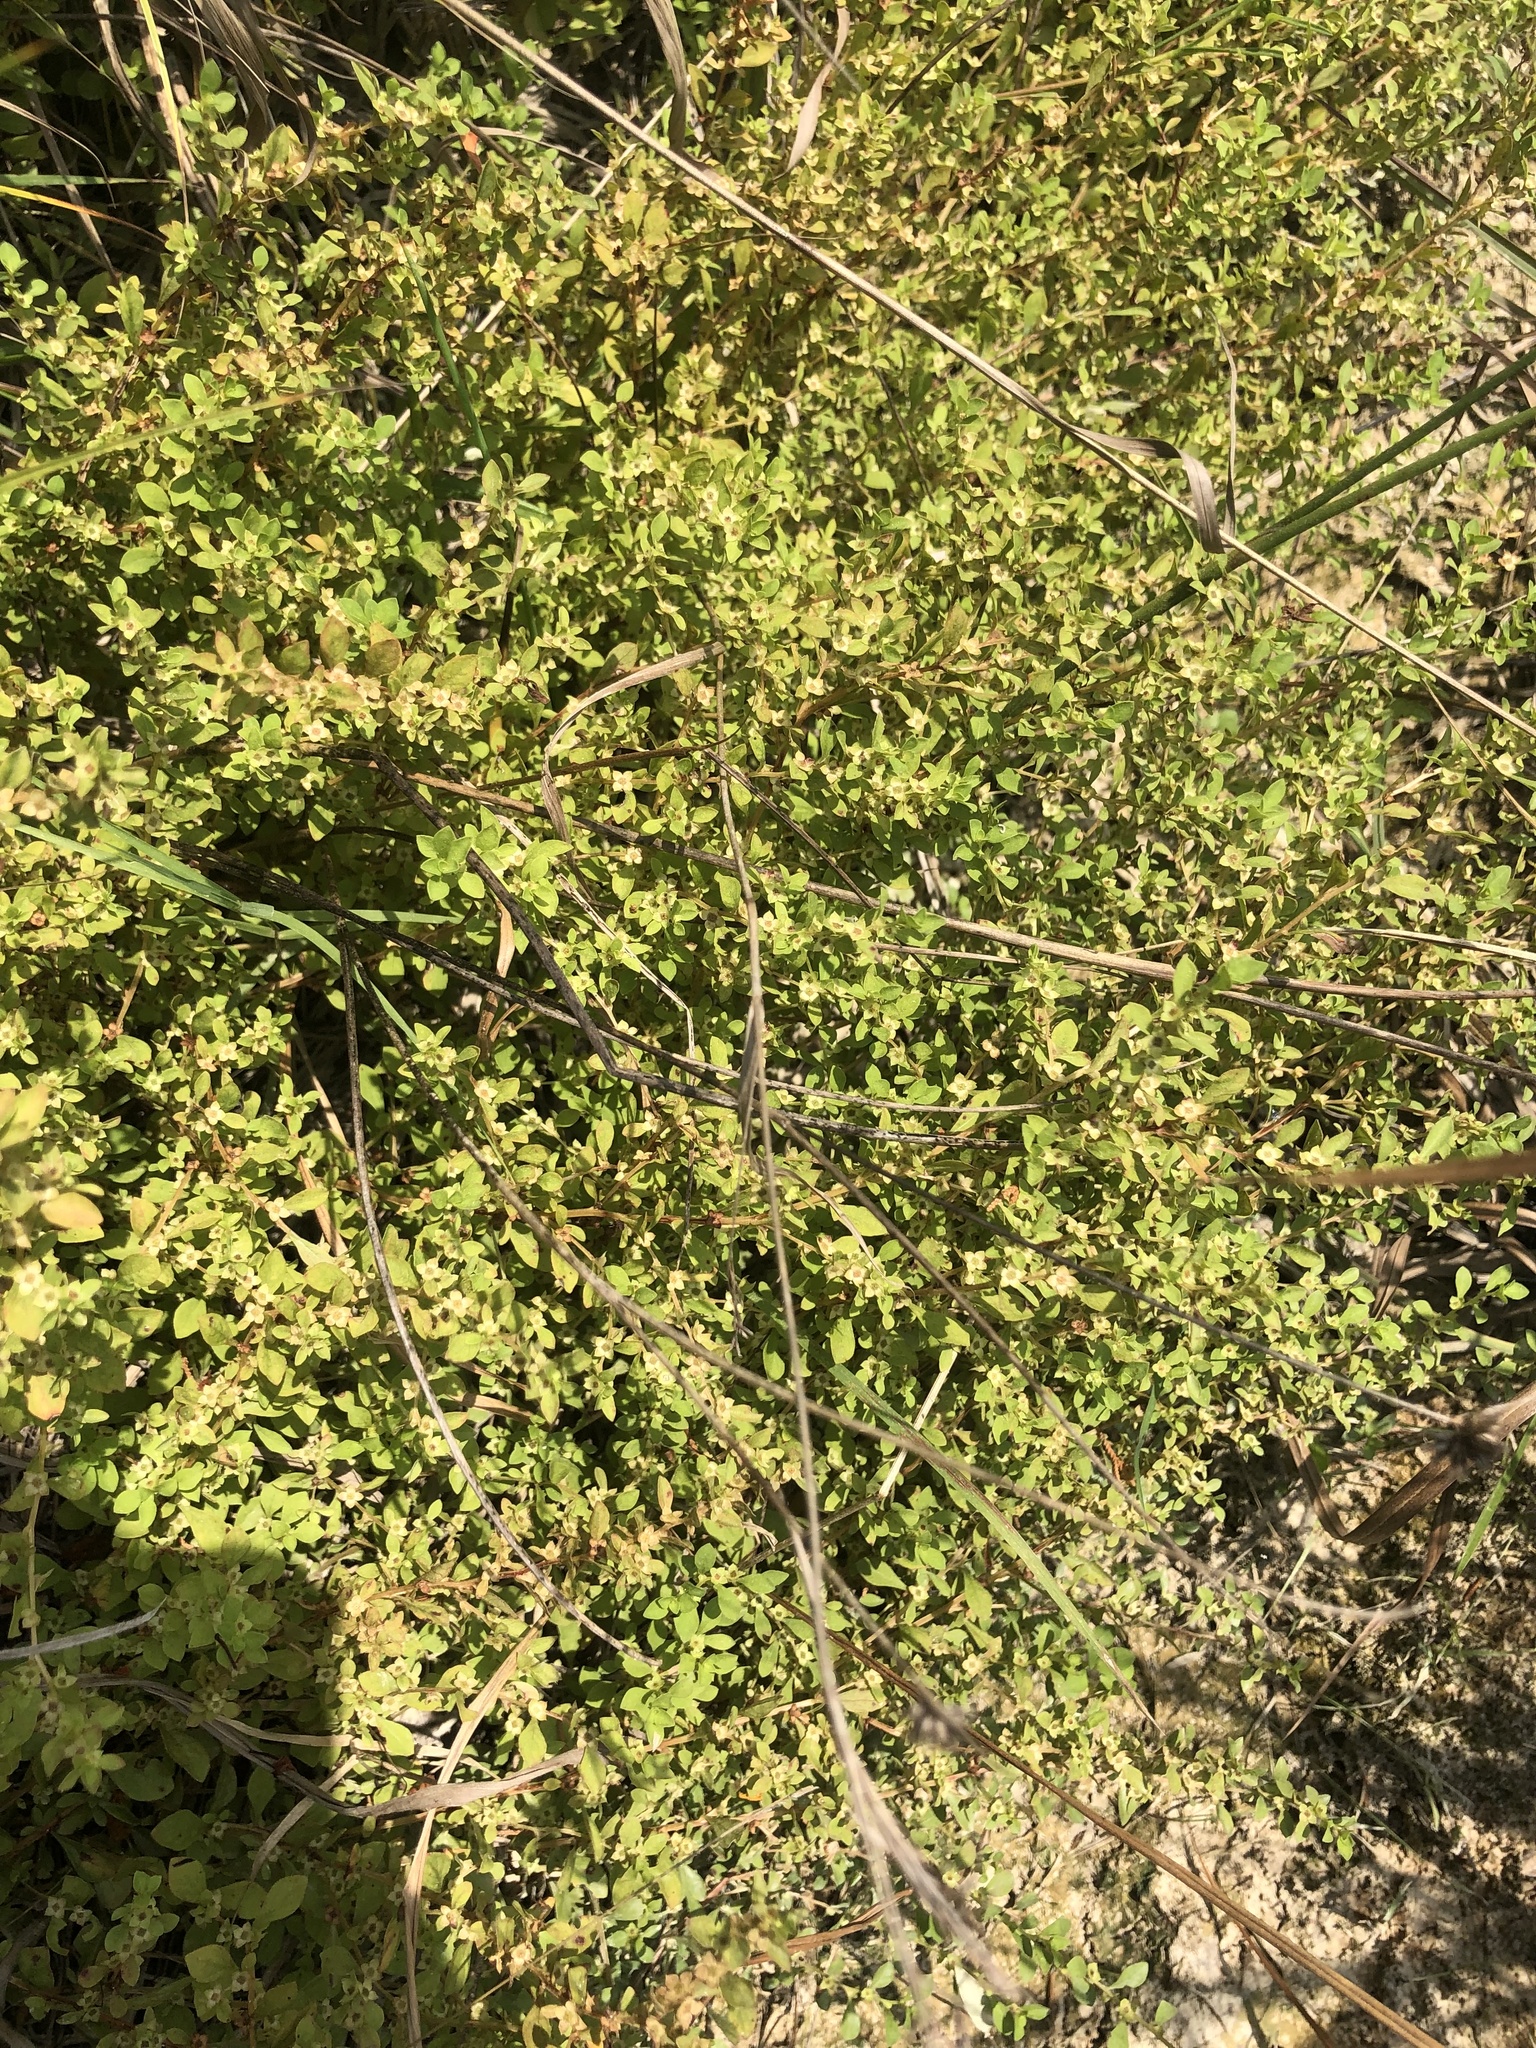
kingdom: Plantae
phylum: Tracheophyta
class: Magnoliopsida
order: Myrtales
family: Onagraceae
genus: Ludwigia
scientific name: Ludwigia microcarpa
